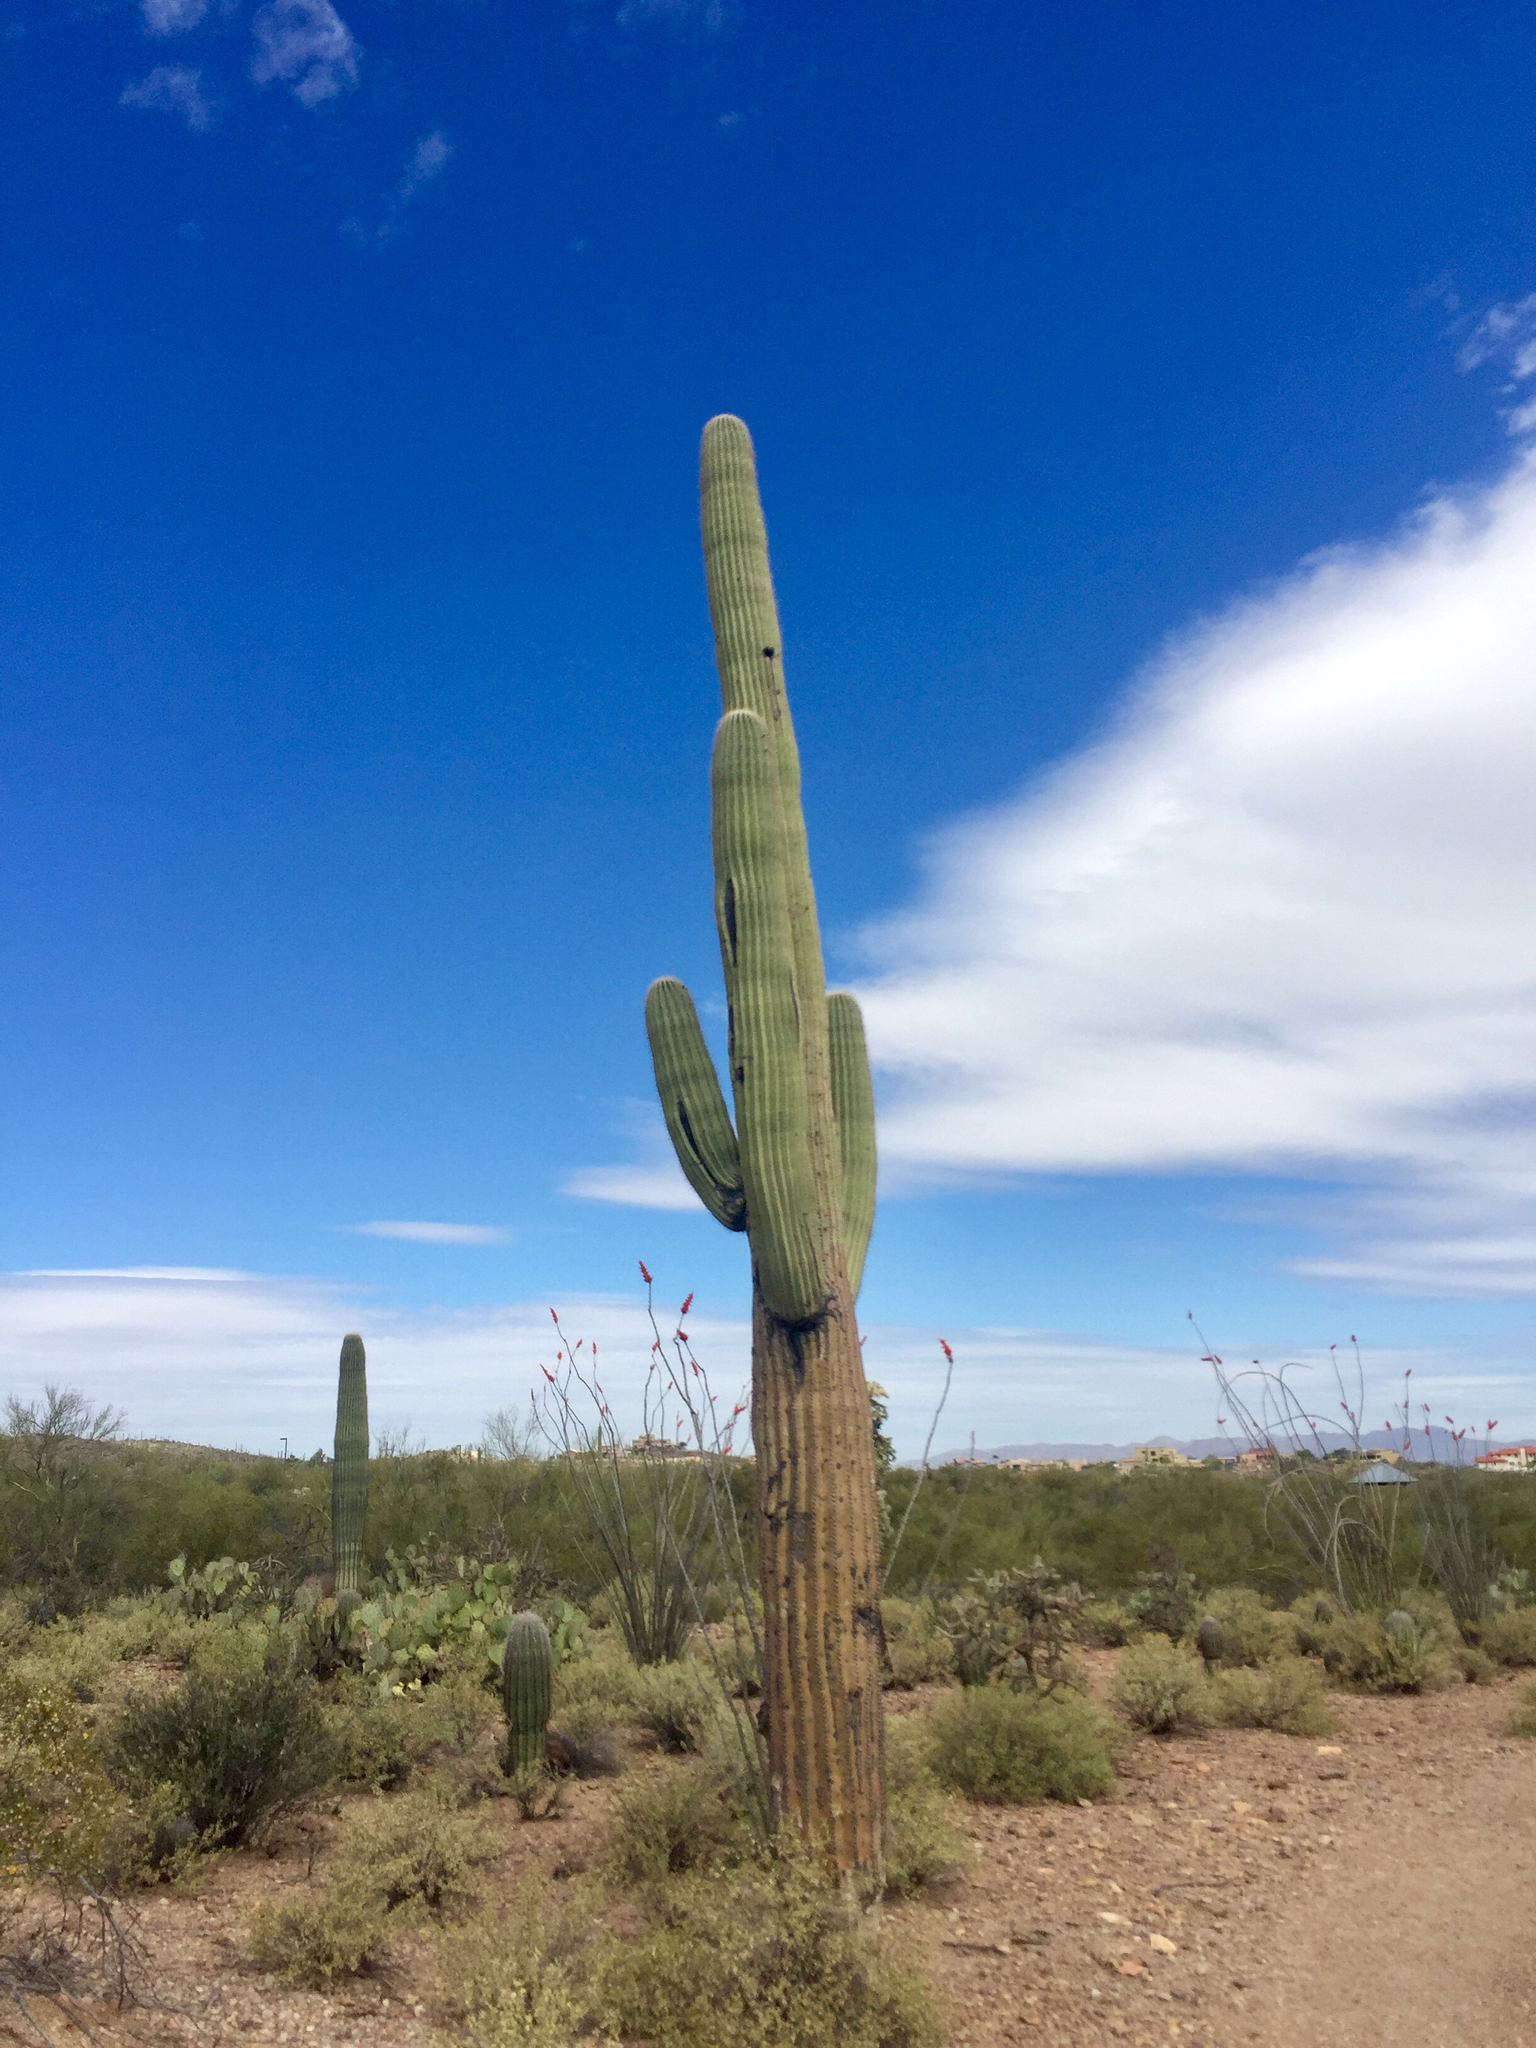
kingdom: Plantae
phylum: Tracheophyta
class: Magnoliopsida
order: Caryophyllales
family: Cactaceae
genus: Carnegiea
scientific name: Carnegiea gigantea
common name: Saguaro
